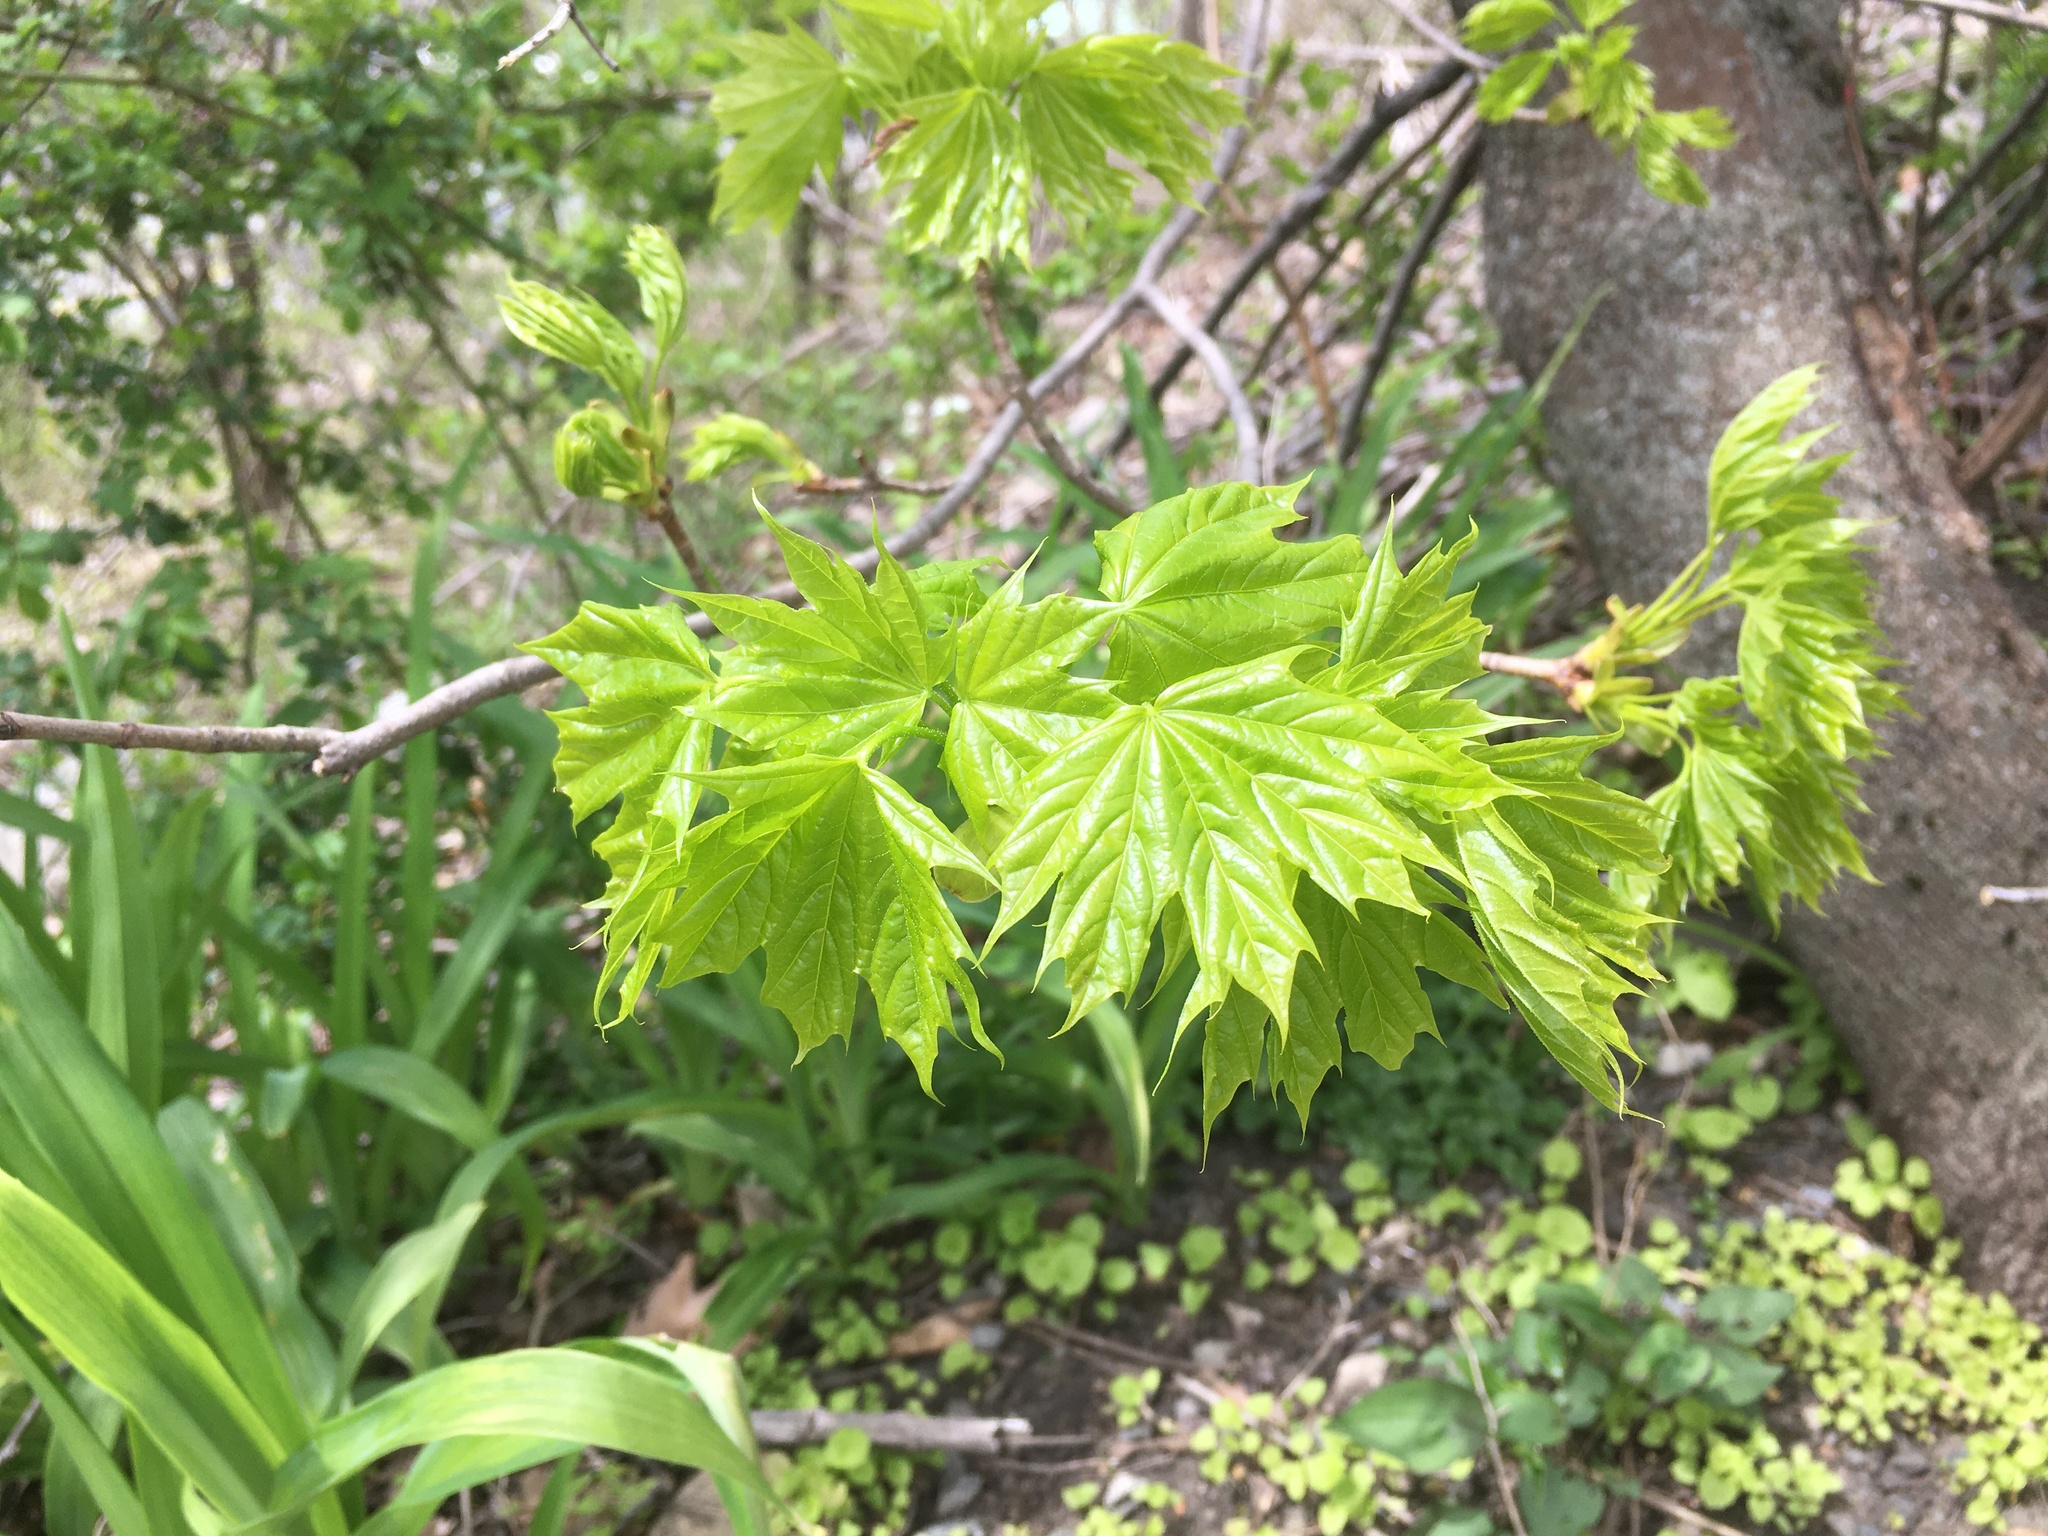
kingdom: Plantae
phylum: Tracheophyta
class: Magnoliopsida
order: Sapindales
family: Sapindaceae
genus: Acer
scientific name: Acer platanoides
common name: Norway maple
